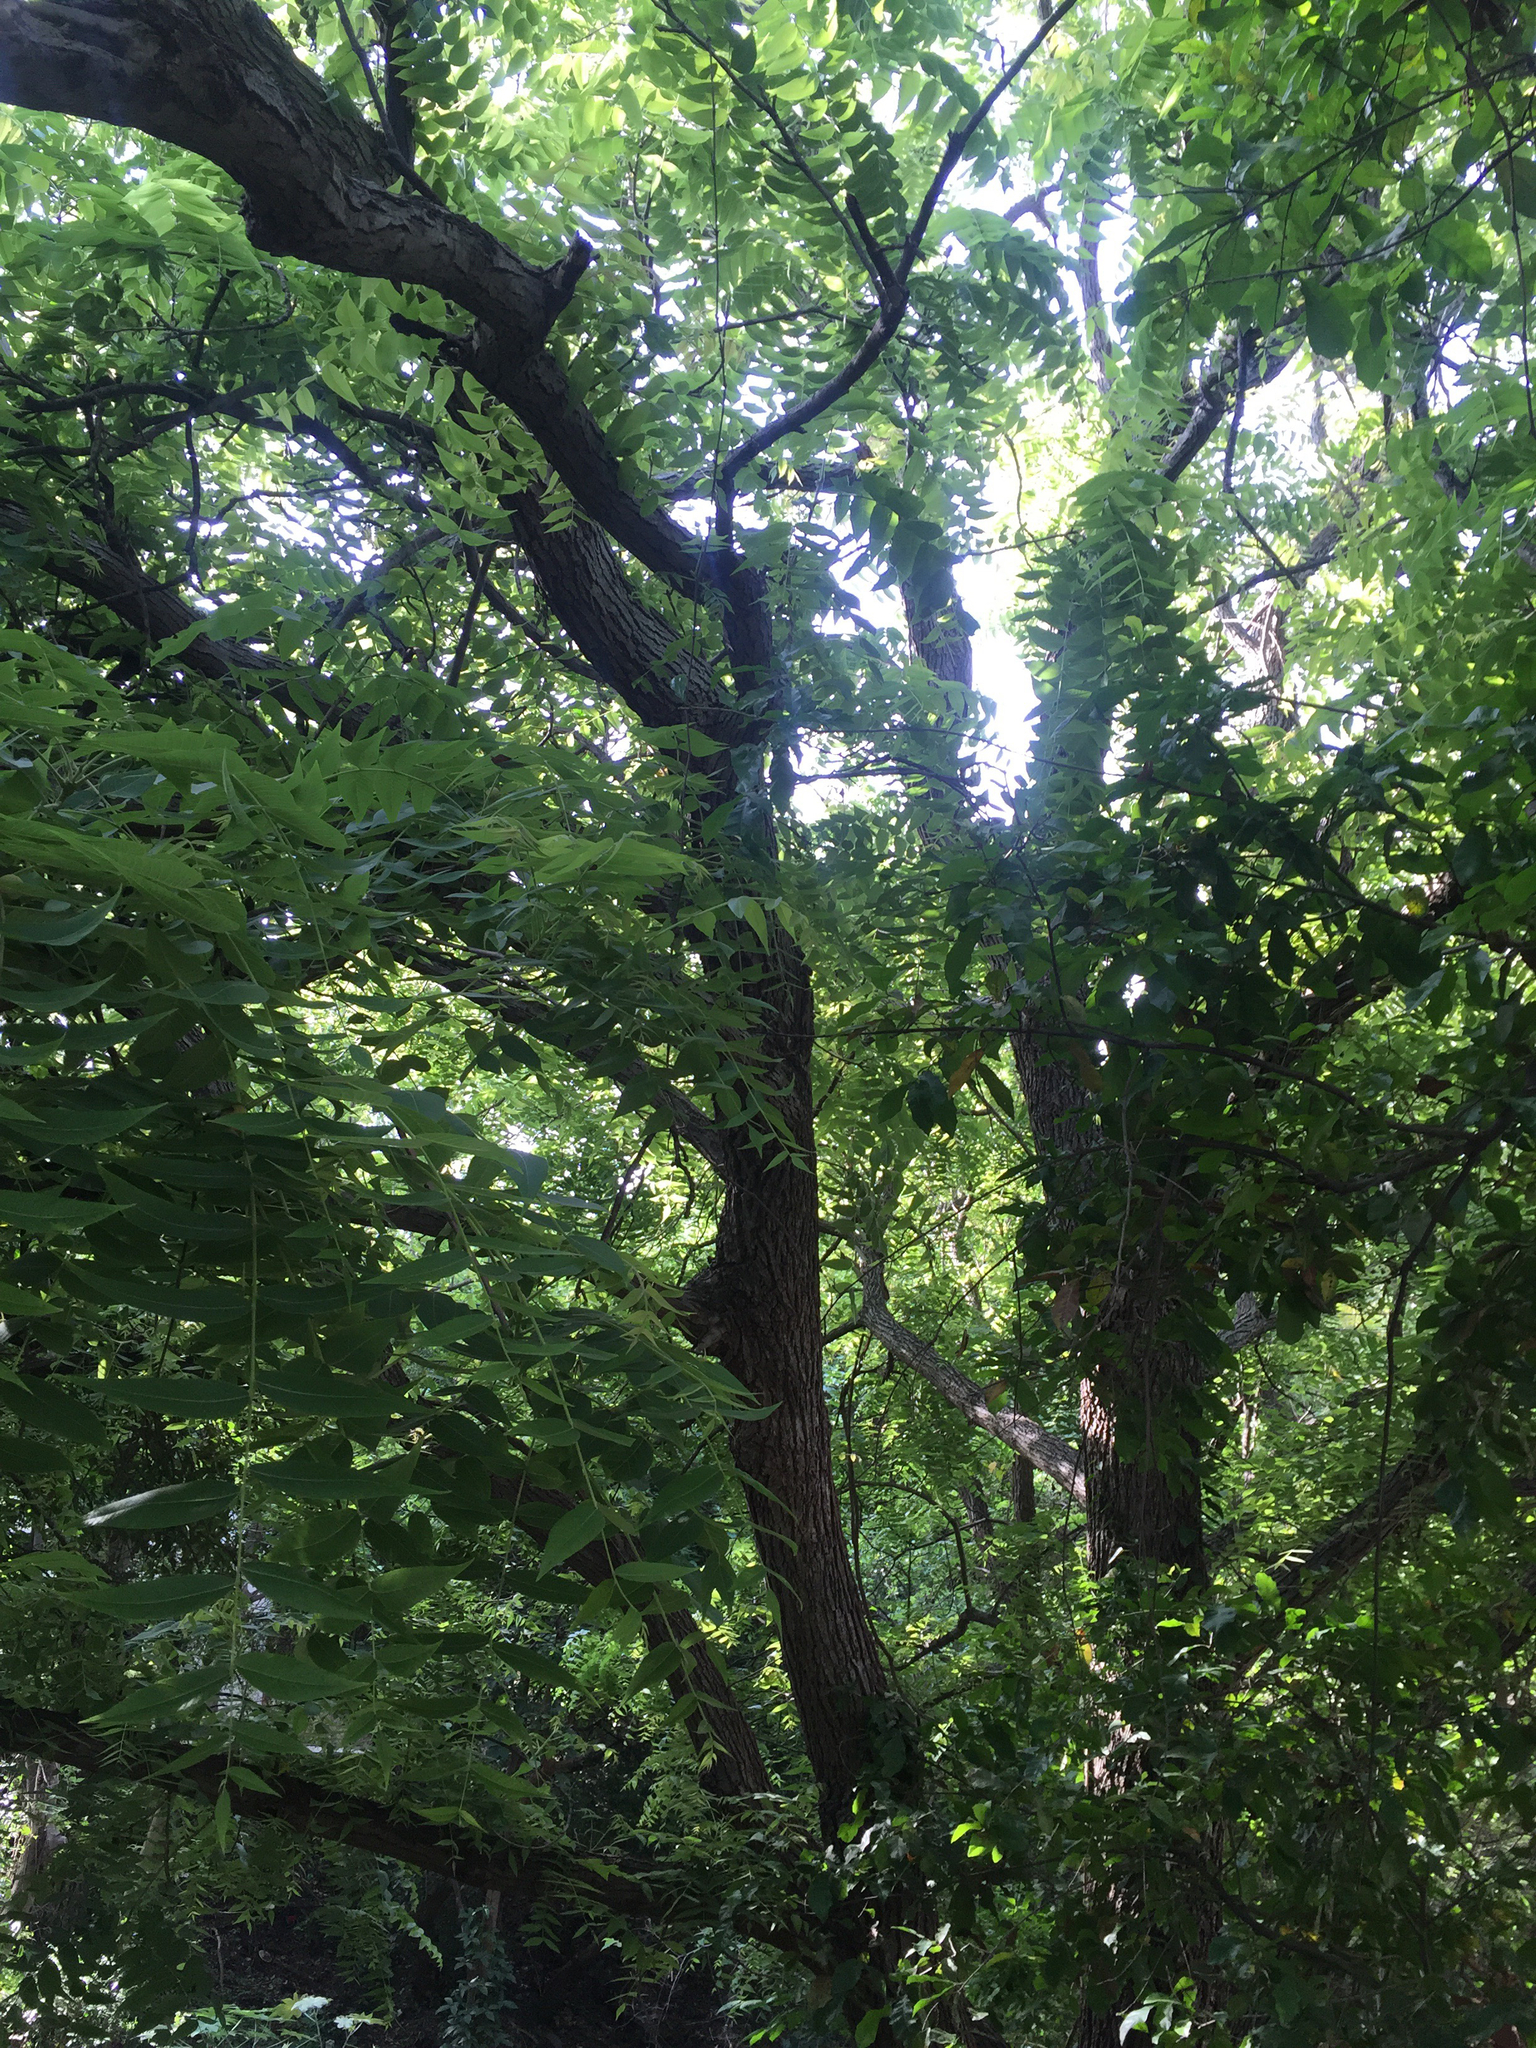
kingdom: Plantae
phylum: Tracheophyta
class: Magnoliopsida
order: Fagales
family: Juglandaceae
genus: Juglans
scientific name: Juglans mollis
